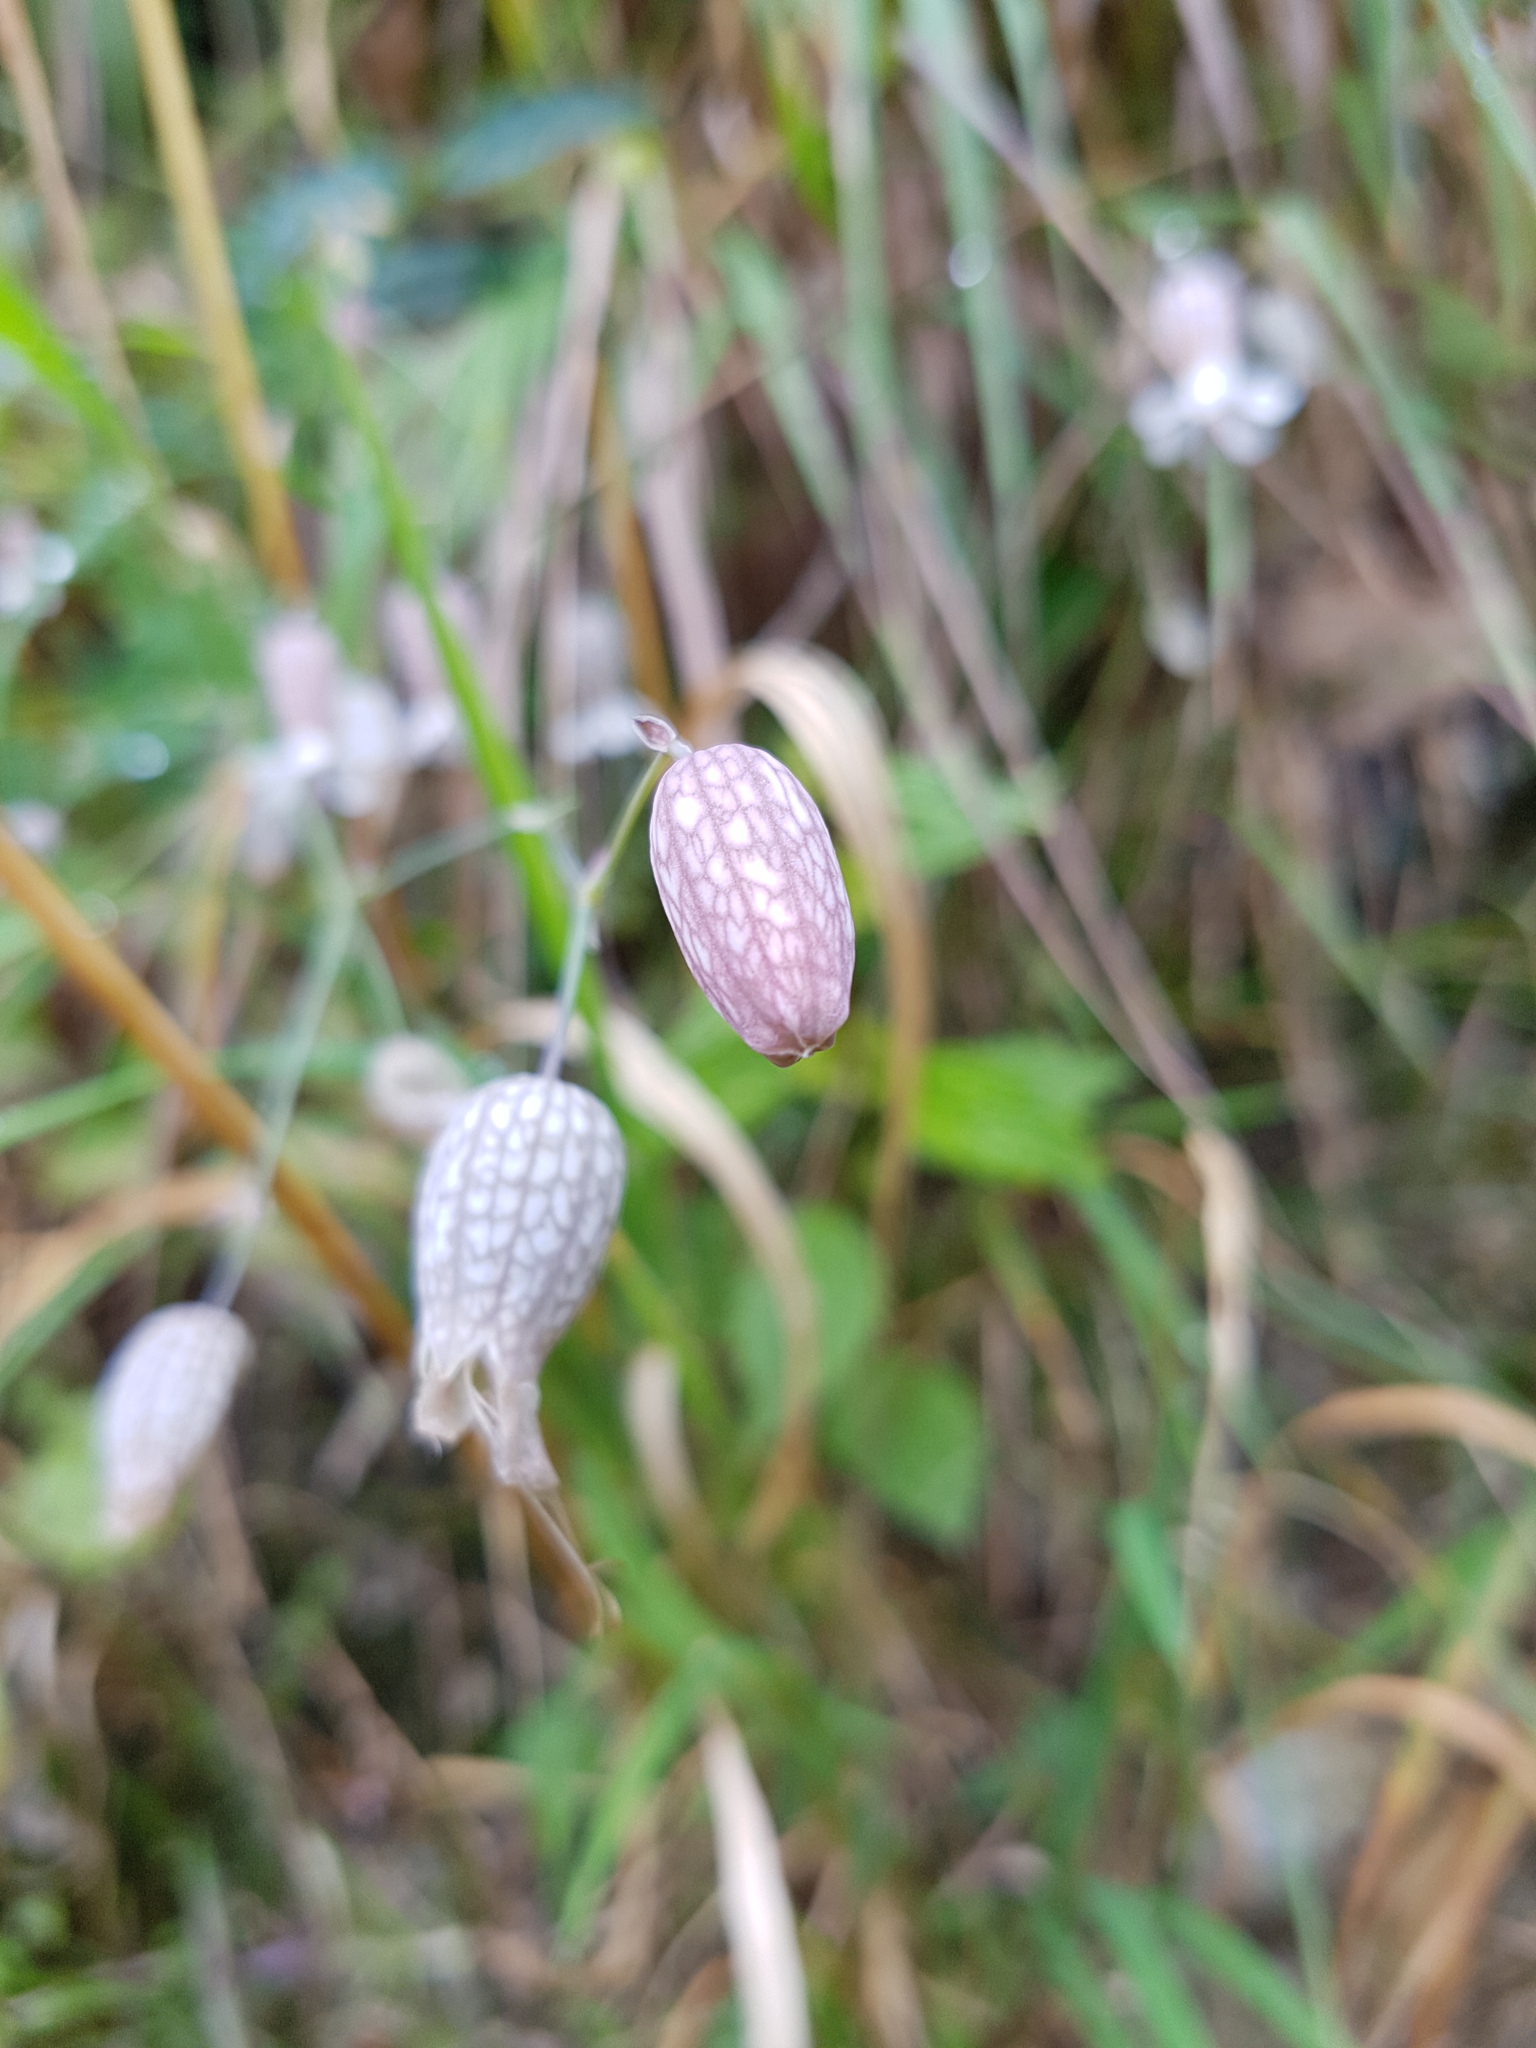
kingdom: Plantae
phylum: Tracheophyta
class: Magnoliopsida
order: Caryophyllales
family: Caryophyllaceae
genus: Silene
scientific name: Silene vulgaris
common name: Bladder campion
